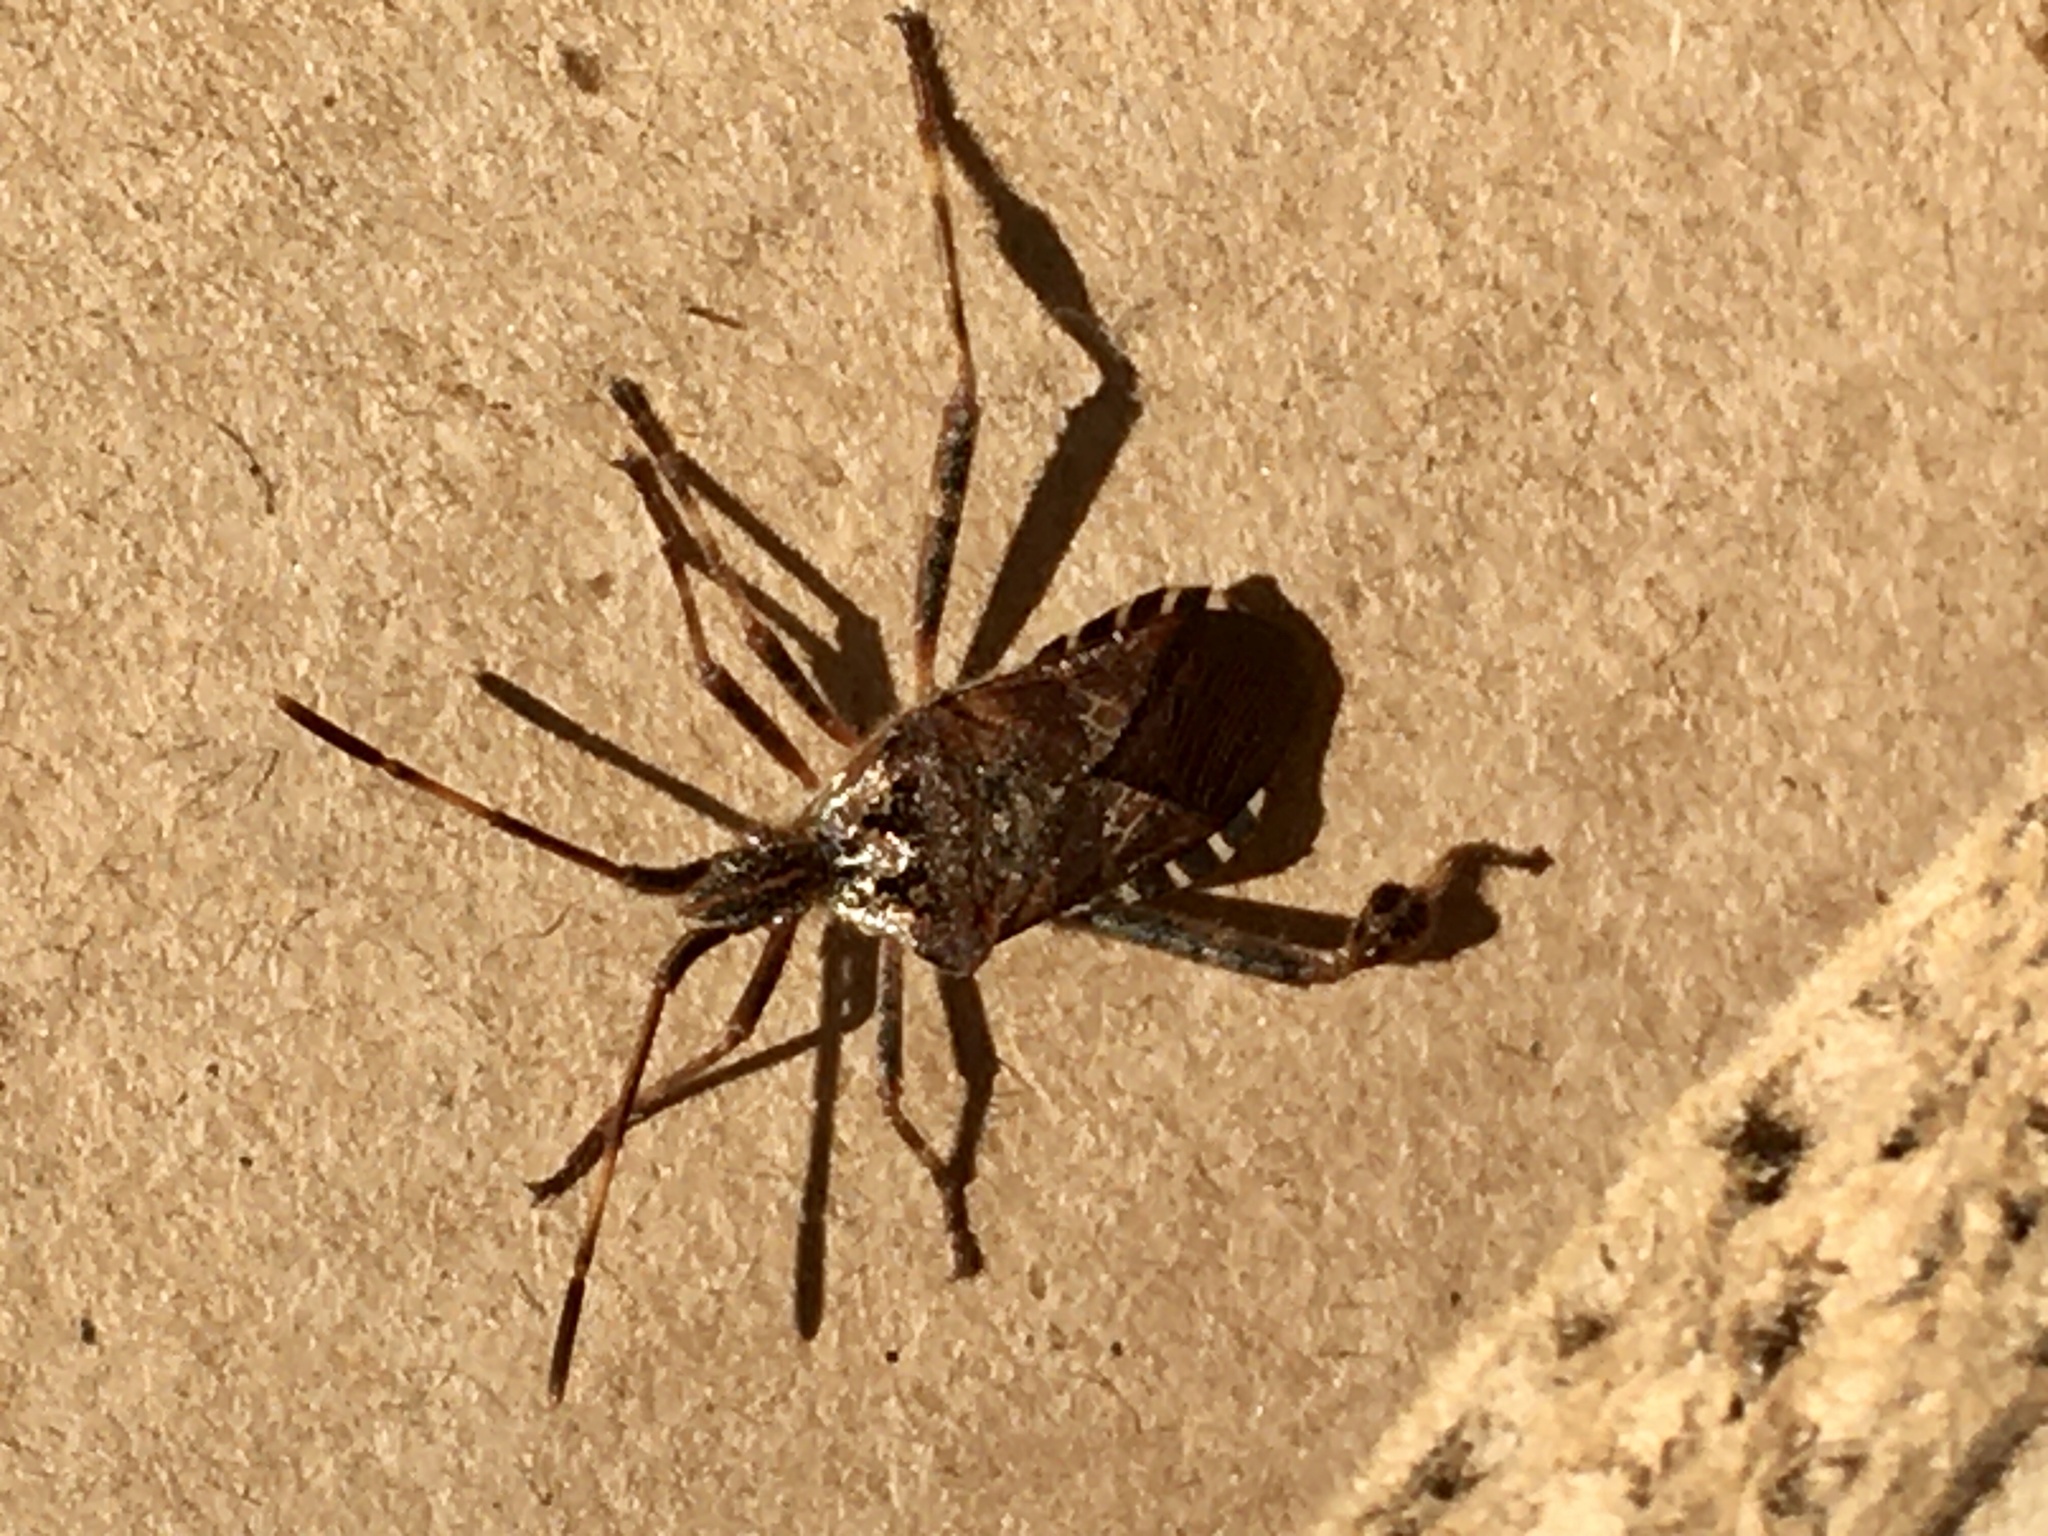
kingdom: Animalia
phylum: Arthropoda
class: Insecta
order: Hemiptera
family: Coreidae
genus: Leptoglossus
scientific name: Leptoglossus occidentalis
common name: Western conifer-seed bug
